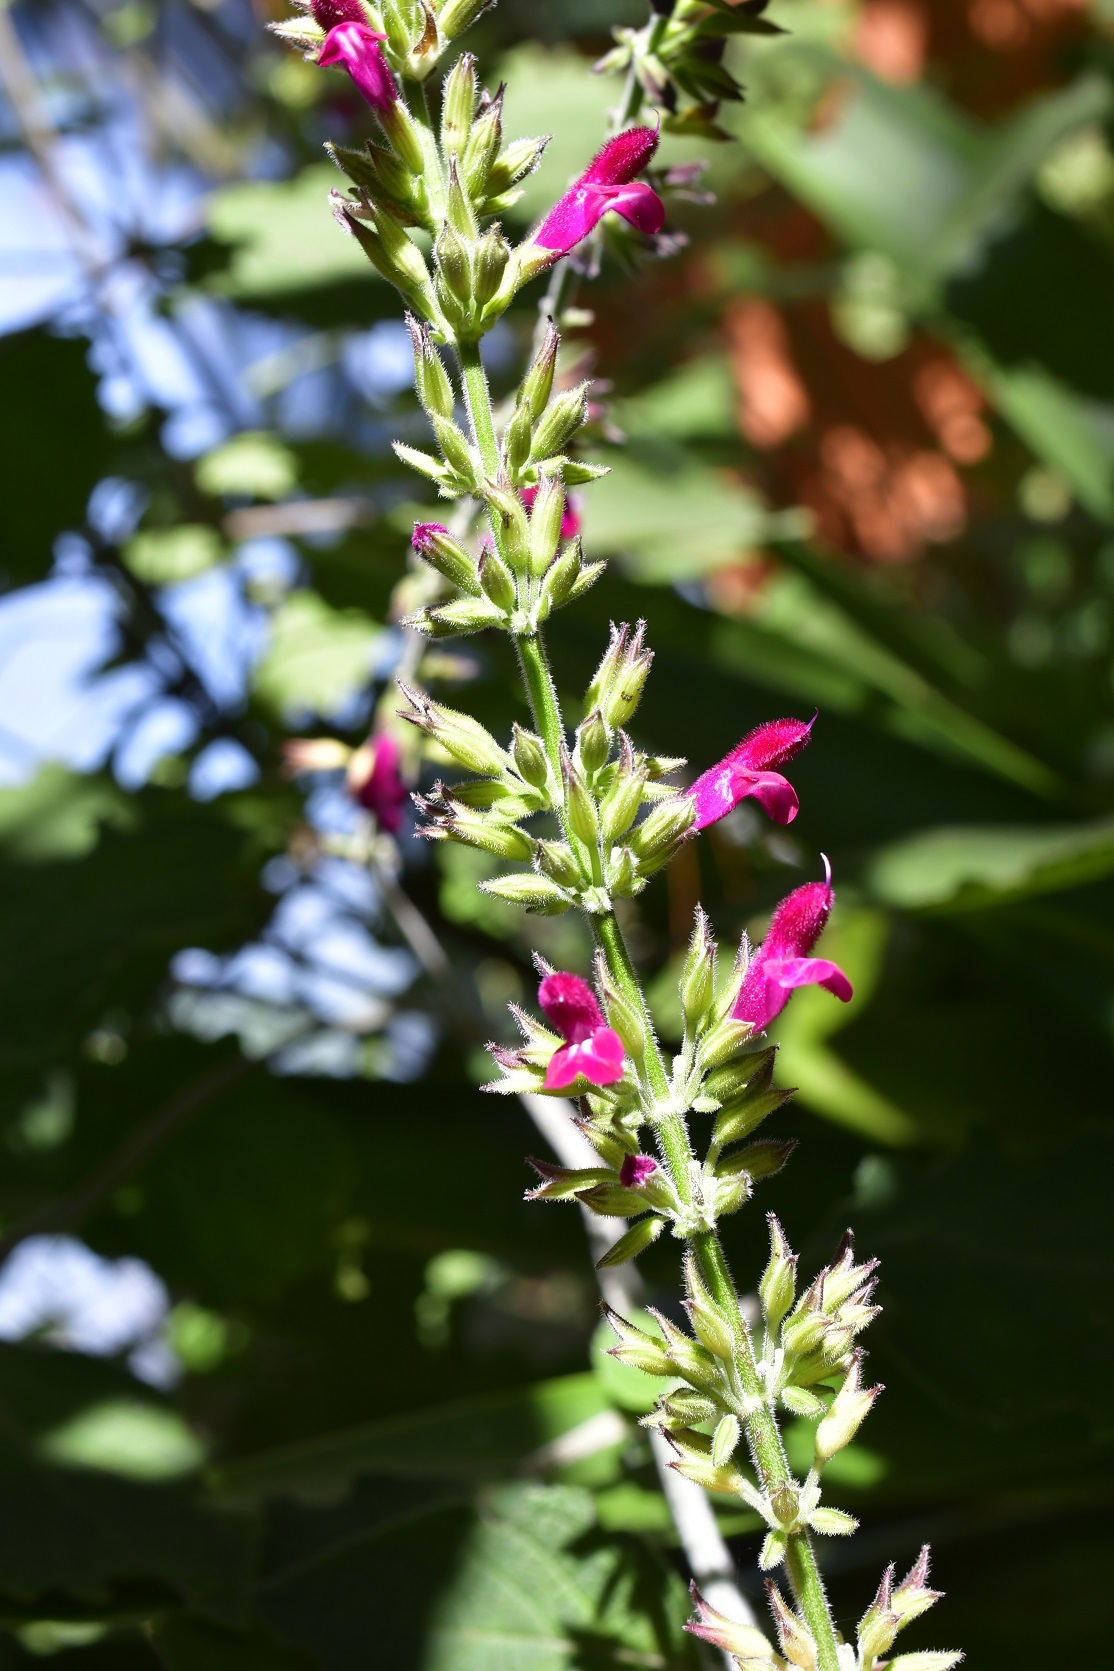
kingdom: Plantae
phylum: Tracheophyta
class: Magnoliopsida
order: Lamiales
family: Lamiaceae
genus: Salvia
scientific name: Salvia chiapensis
